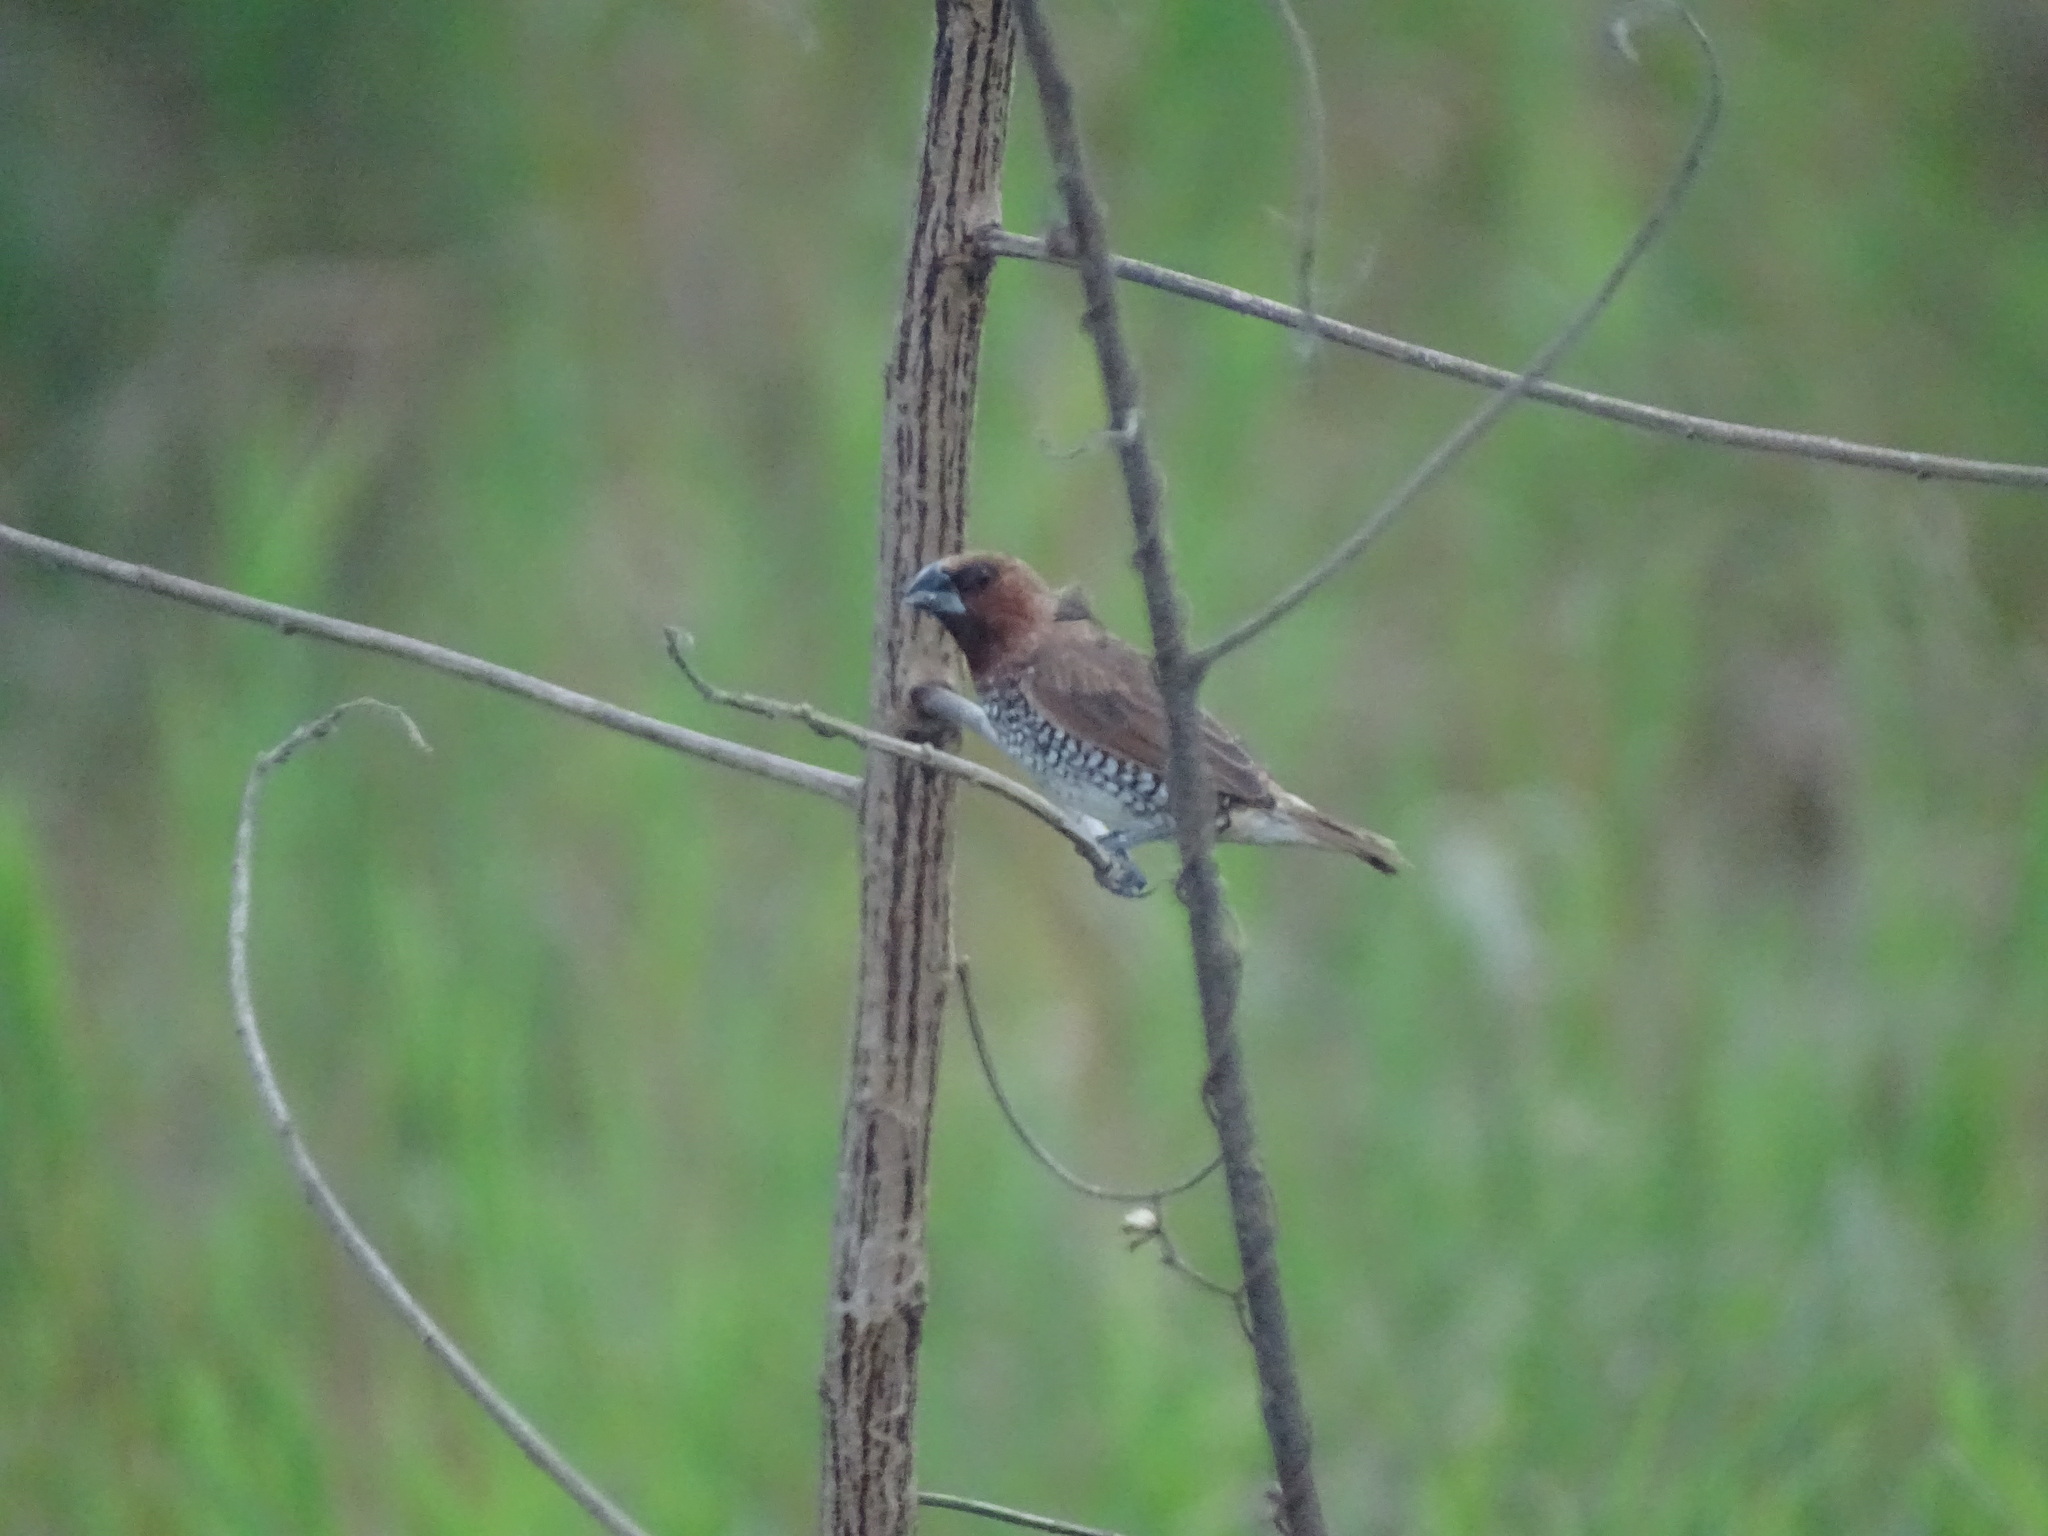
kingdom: Animalia
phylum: Chordata
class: Aves
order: Passeriformes
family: Estrildidae
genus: Lonchura
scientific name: Lonchura punctulata
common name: Scaly-breasted munia
